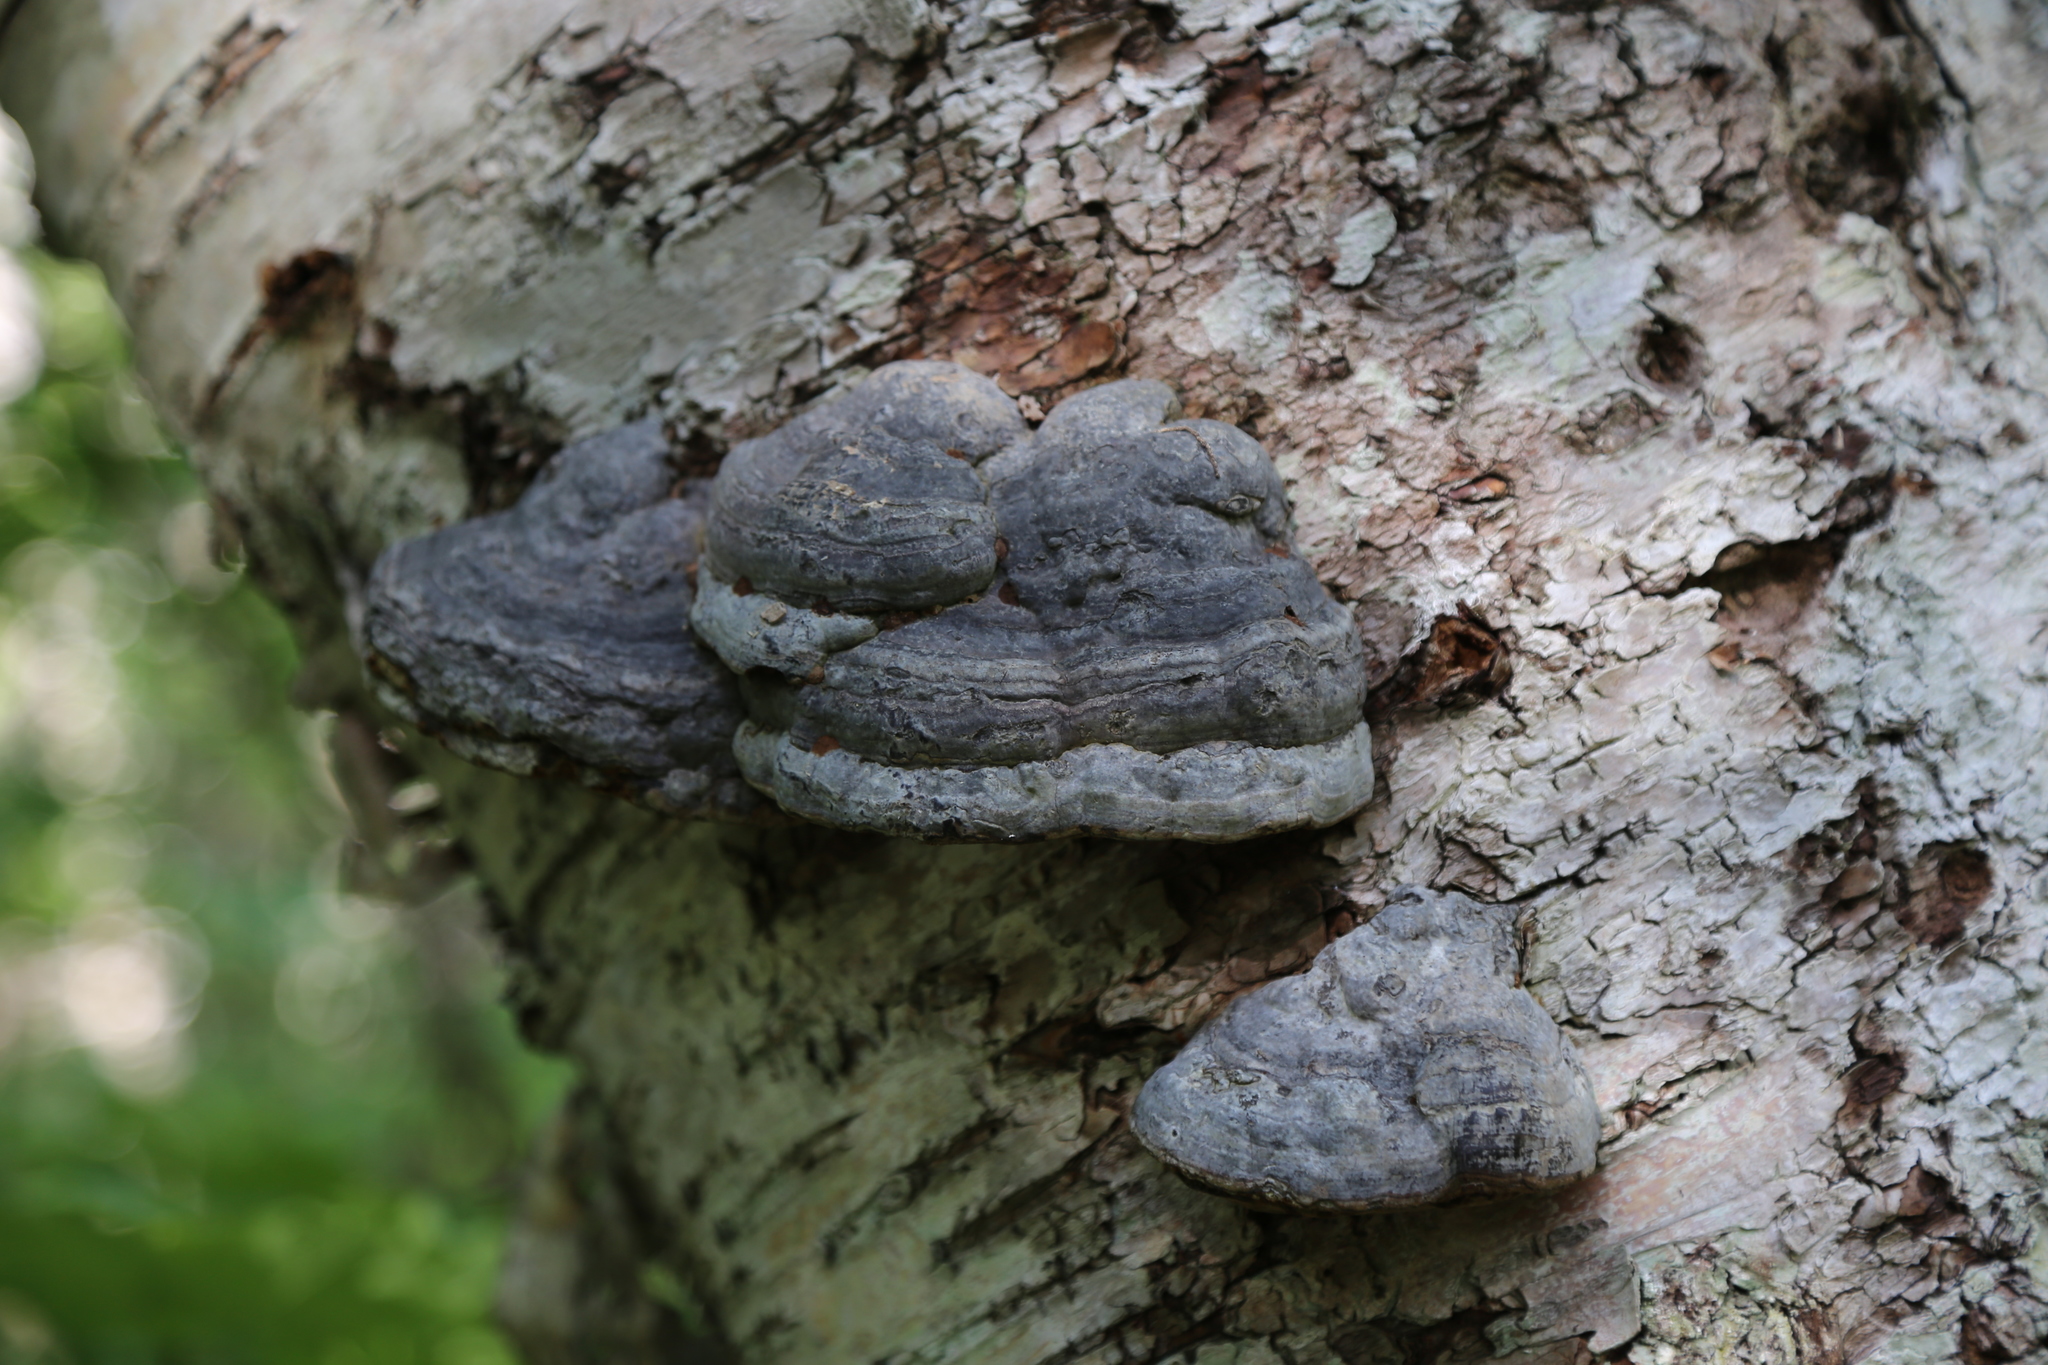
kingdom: Fungi
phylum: Basidiomycota
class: Agaricomycetes
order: Polyporales
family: Polyporaceae
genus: Fomes
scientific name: Fomes fomentarius
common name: Hoof fungus
